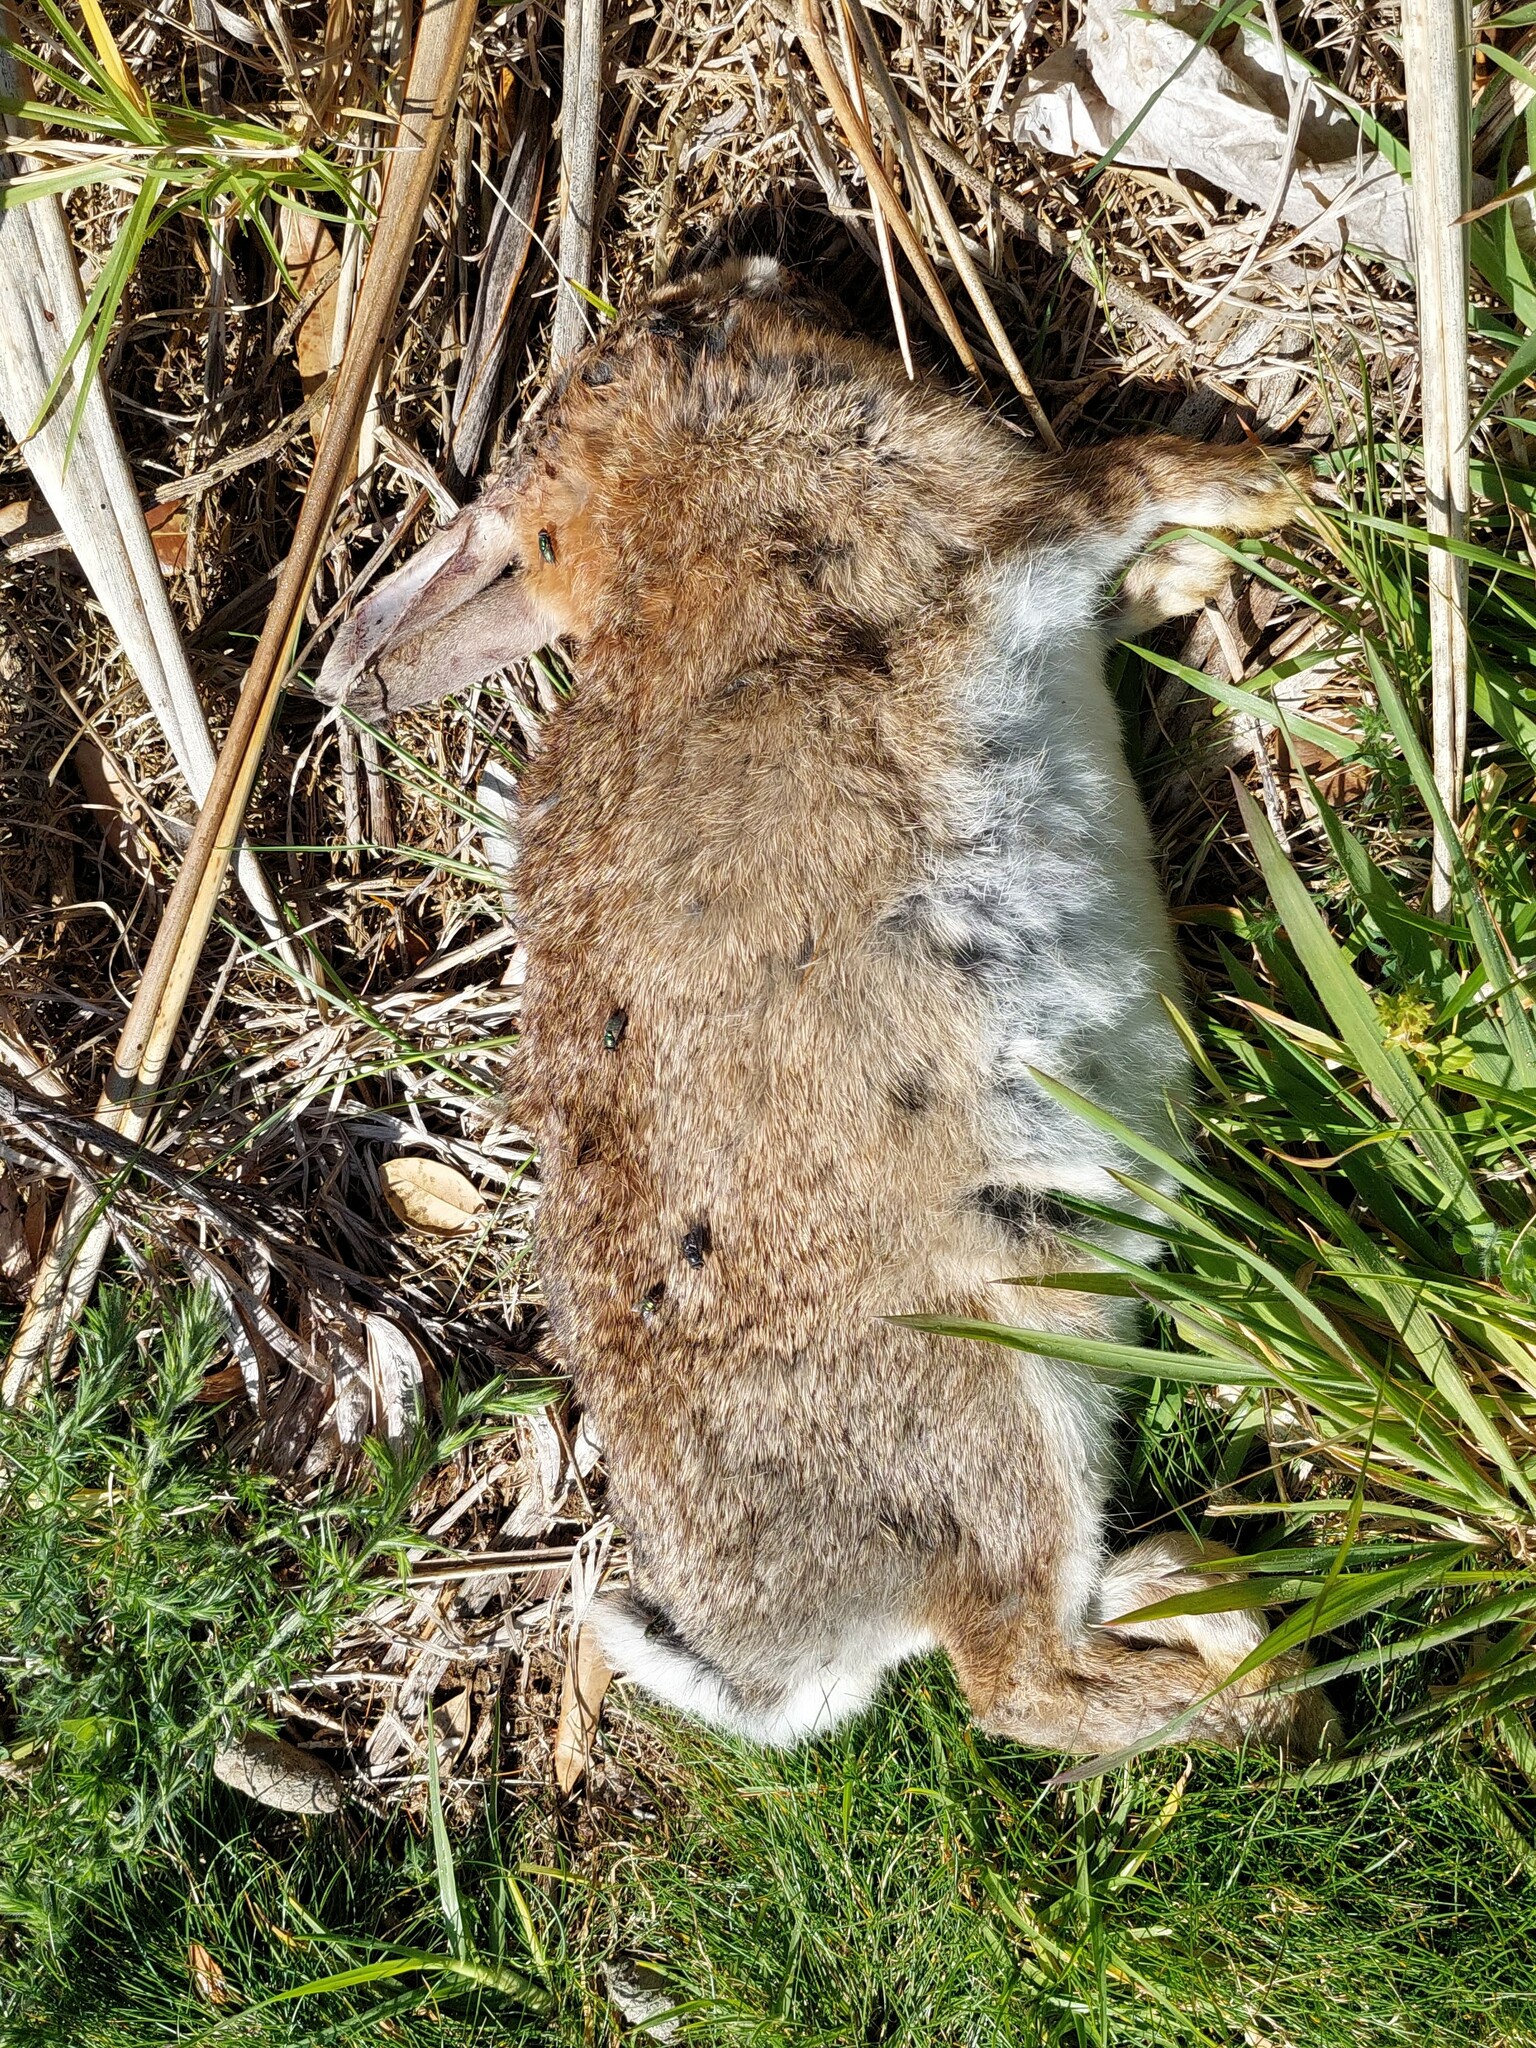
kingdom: Animalia
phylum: Chordata
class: Mammalia
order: Lagomorpha
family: Leporidae
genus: Oryctolagus
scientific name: Oryctolagus cuniculus
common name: European rabbit
